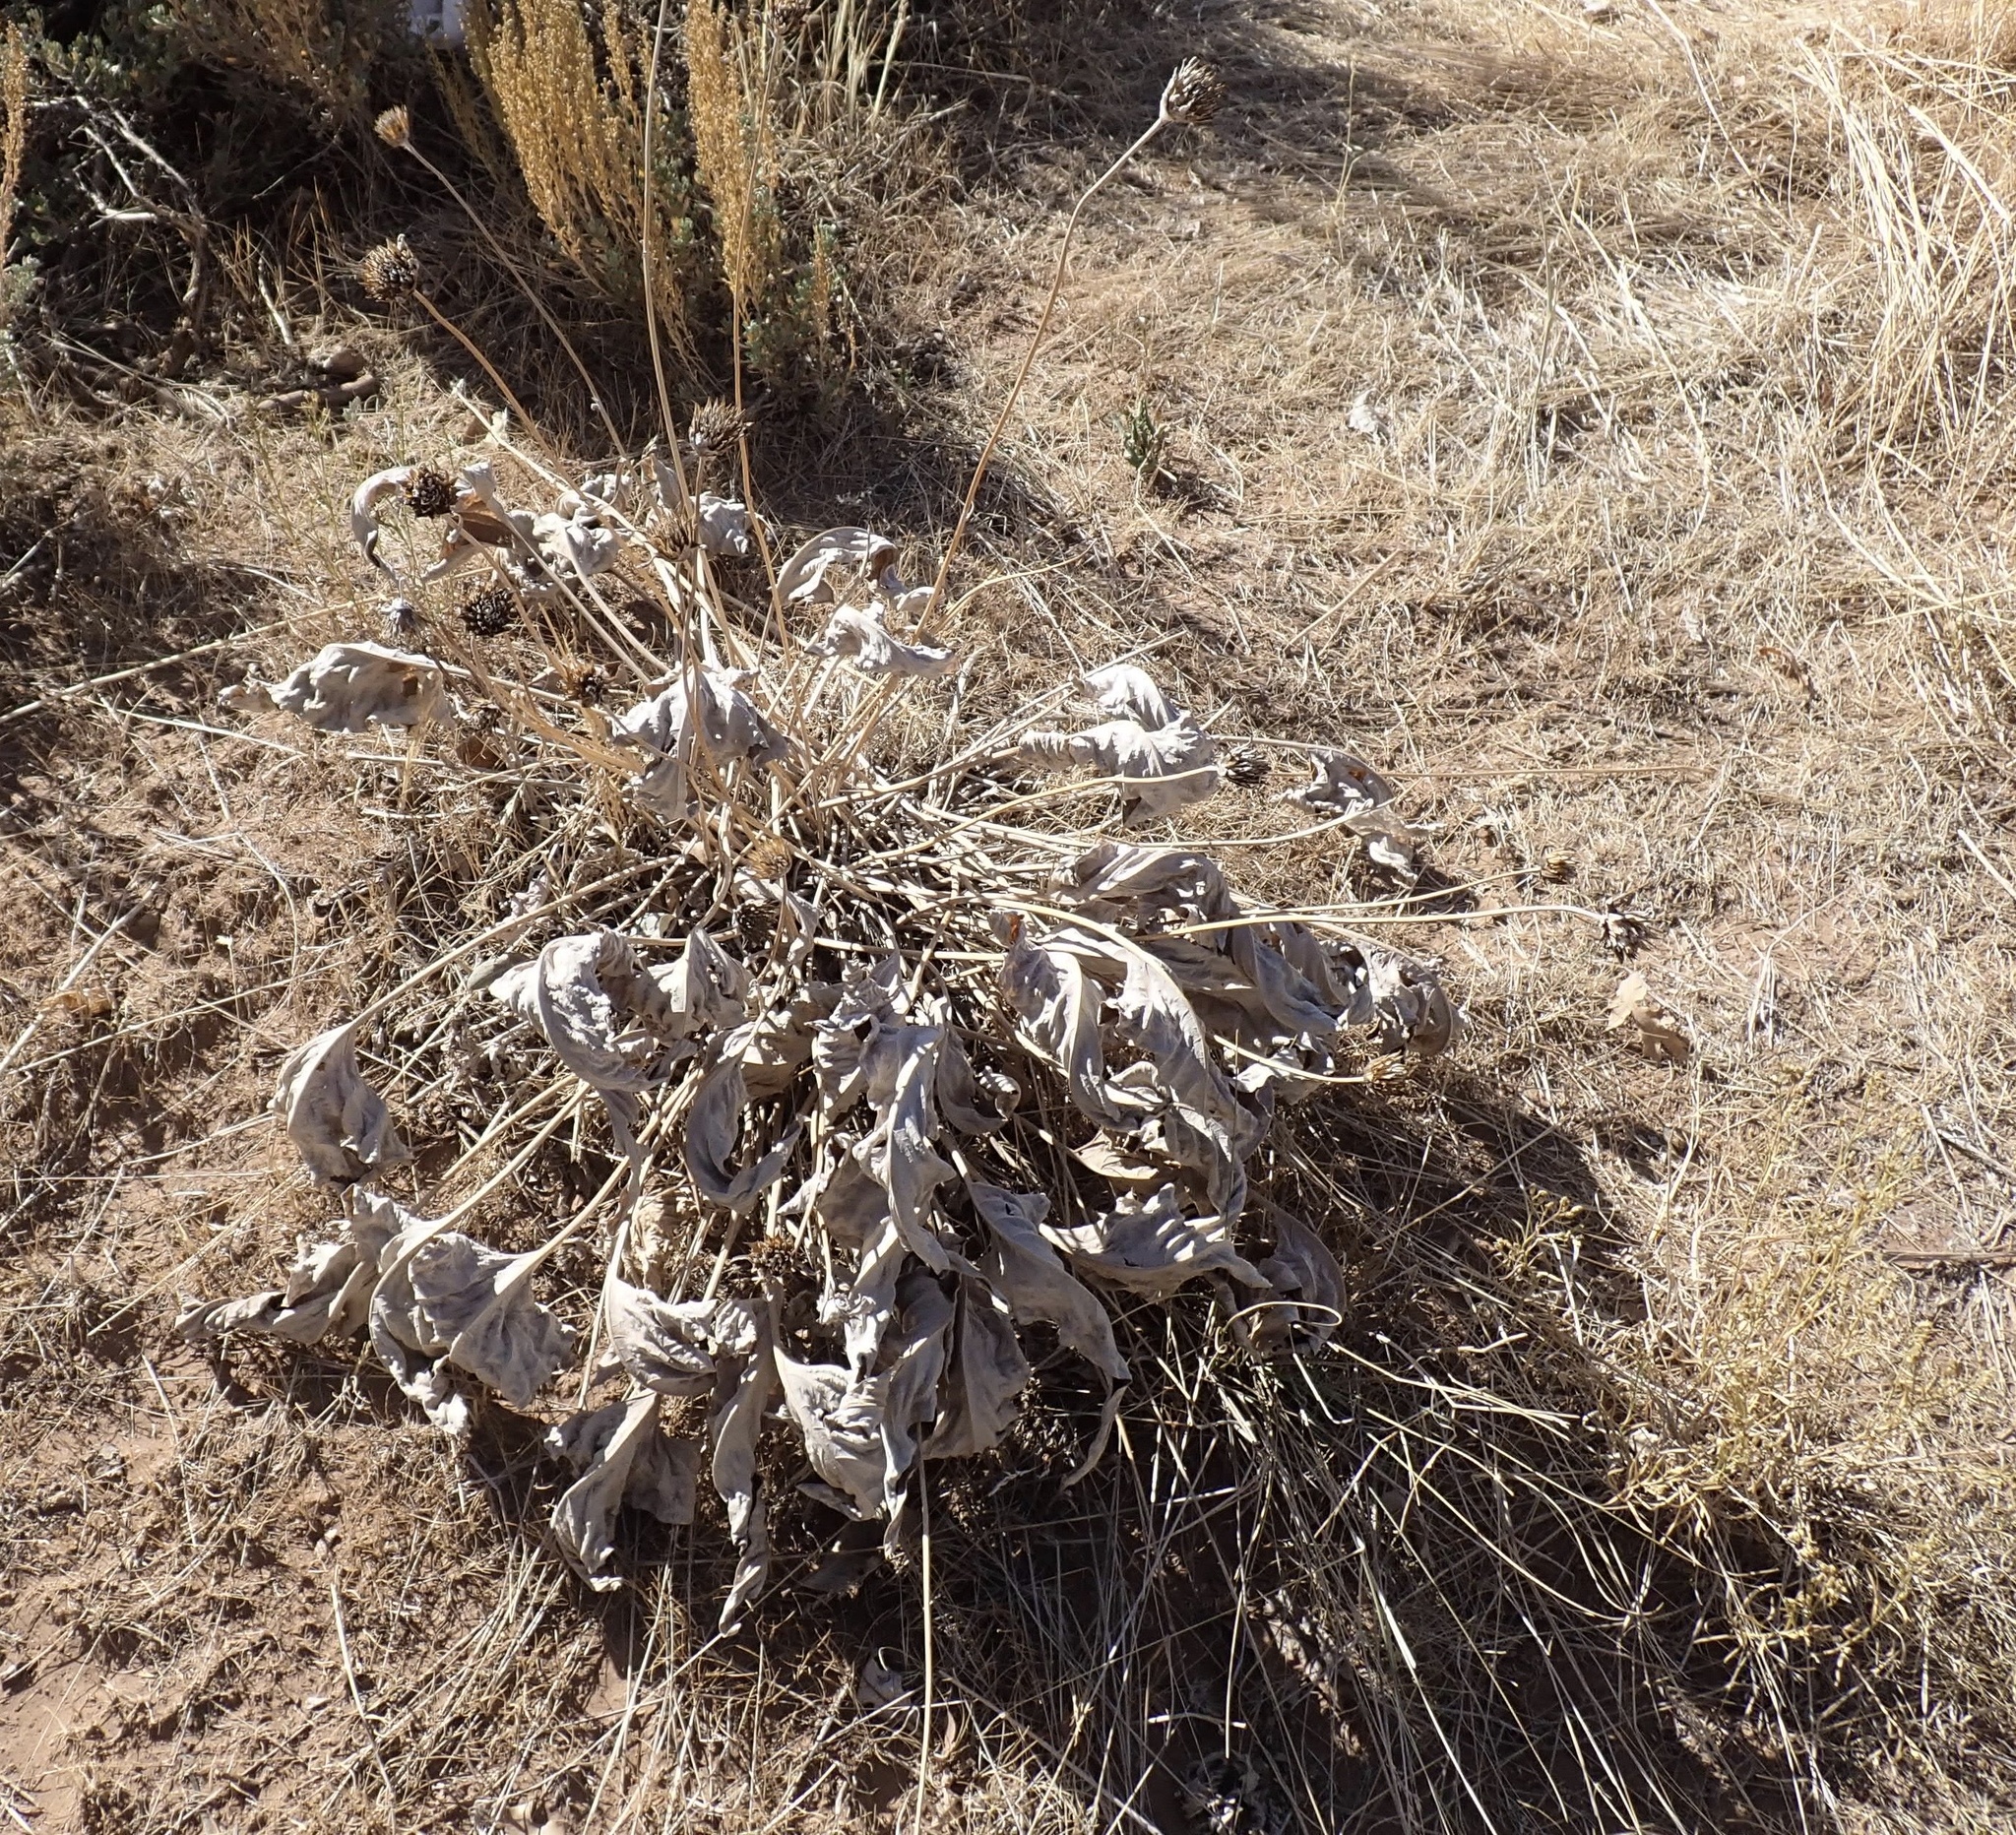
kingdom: Plantae
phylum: Tracheophyta
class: Magnoliopsida
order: Asterales
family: Asteraceae
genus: Wyethia
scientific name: Wyethia sagittata
